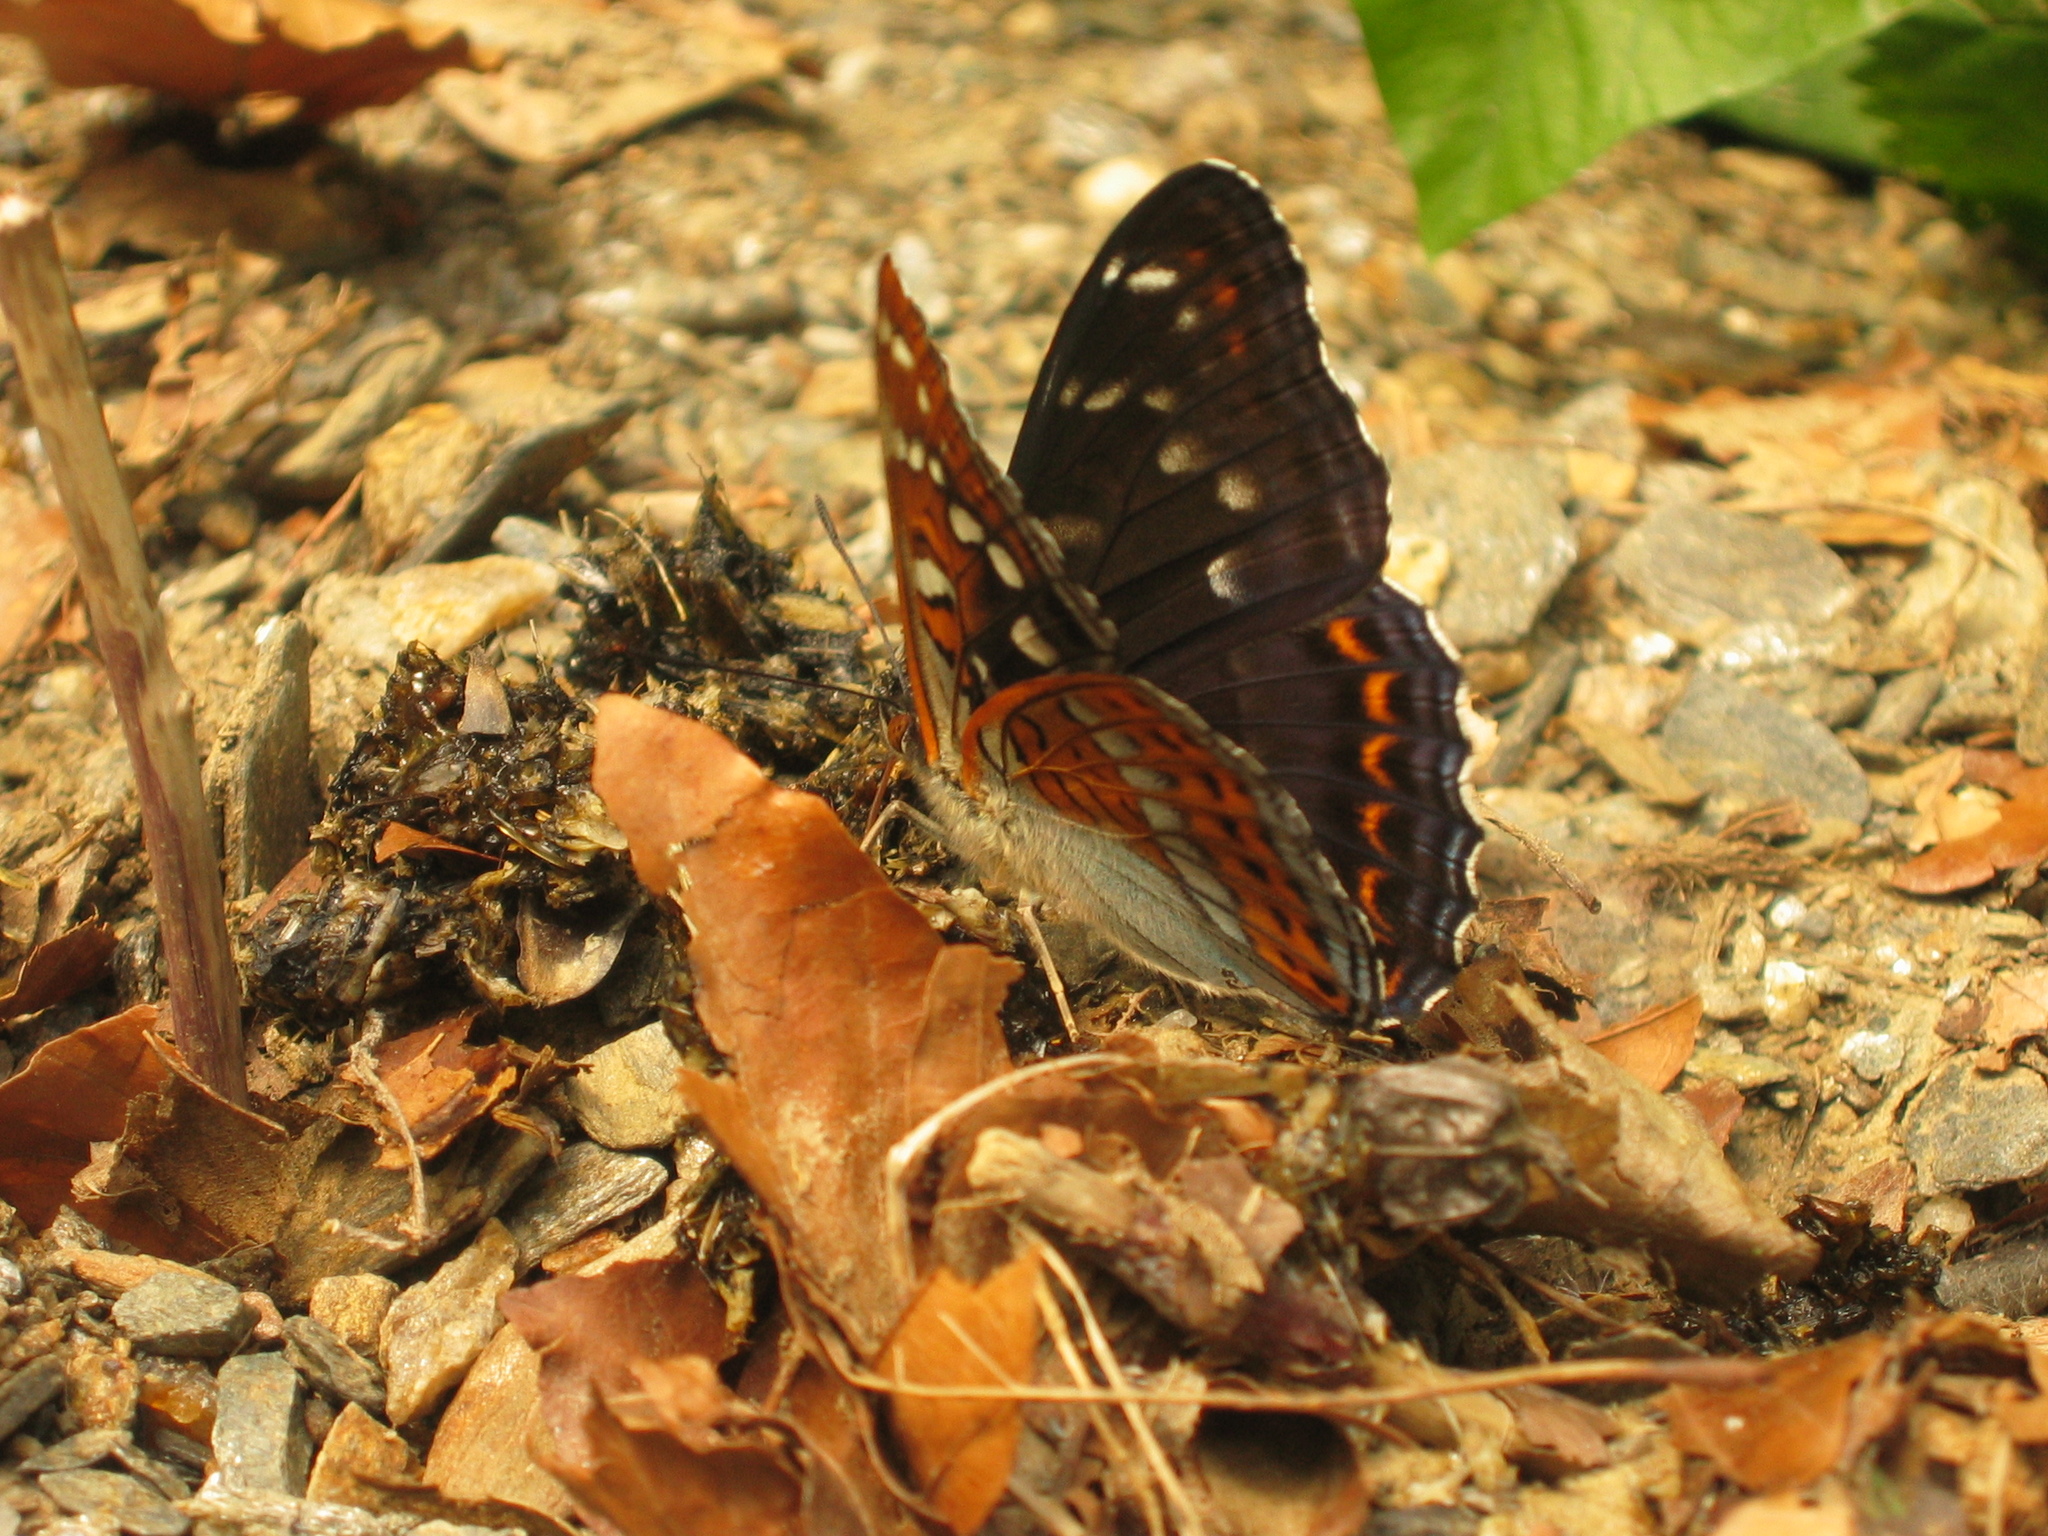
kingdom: Animalia
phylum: Arthropoda
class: Insecta
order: Lepidoptera
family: Nymphalidae
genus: Limenitis
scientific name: Limenitis populi
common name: Poplar admiral
